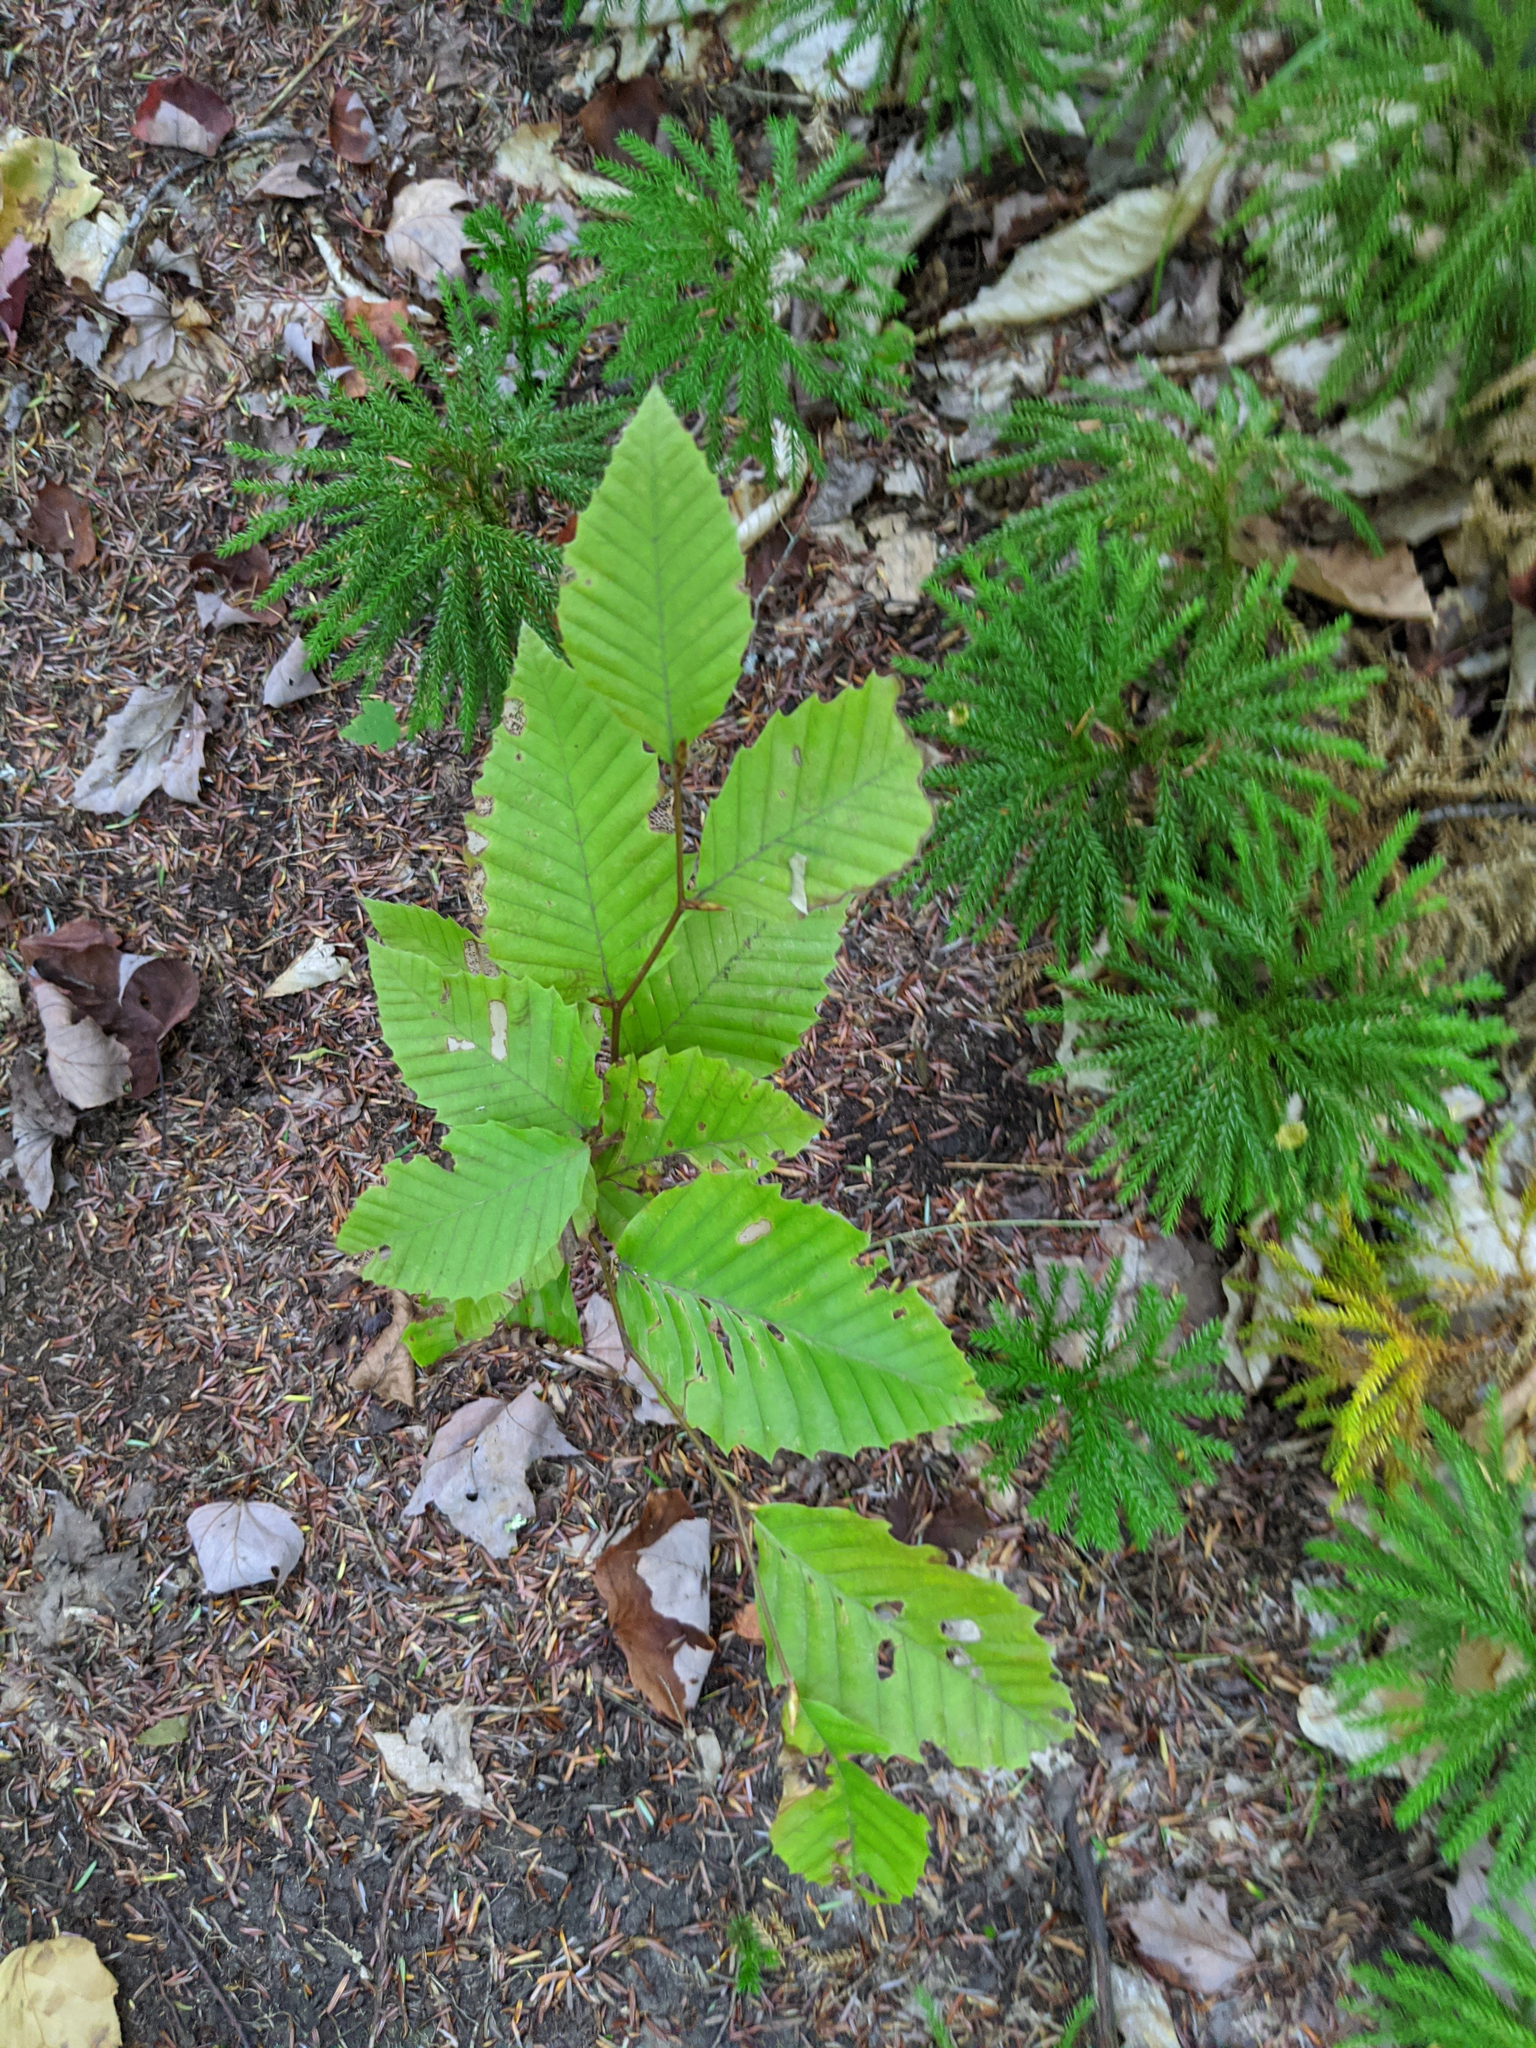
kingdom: Plantae
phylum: Tracheophyta
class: Magnoliopsida
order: Fagales
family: Fagaceae
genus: Fagus
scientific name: Fagus grandifolia
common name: American beech
